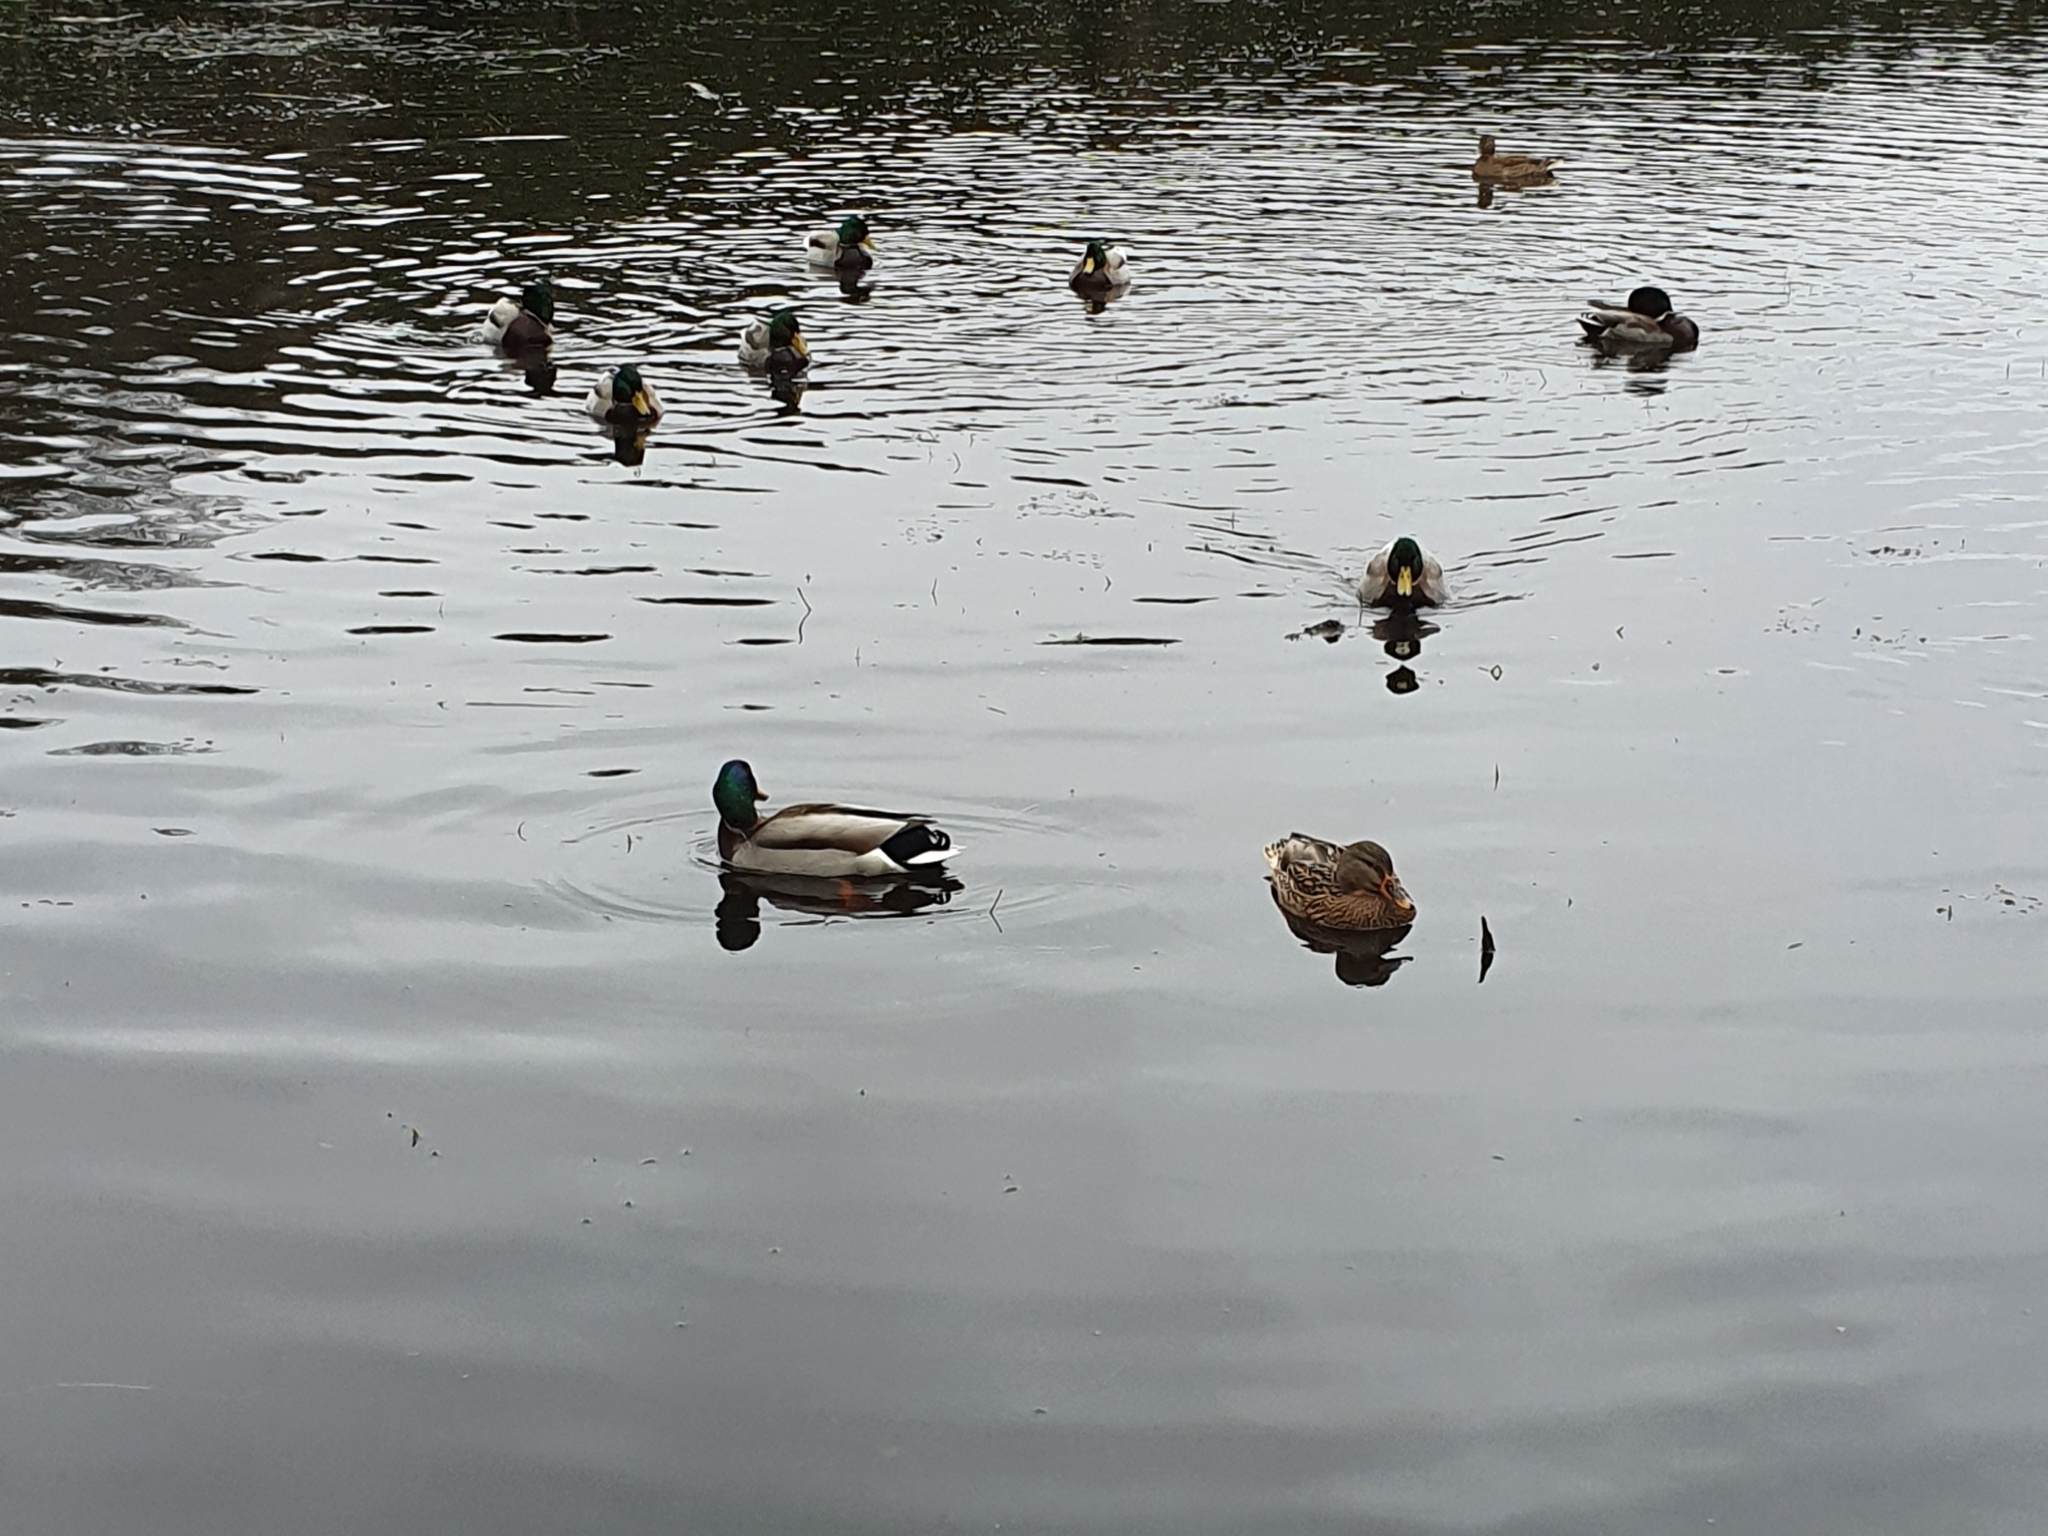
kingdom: Animalia
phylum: Chordata
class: Aves
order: Anseriformes
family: Anatidae
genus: Anas
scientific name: Anas platyrhynchos
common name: Mallard
